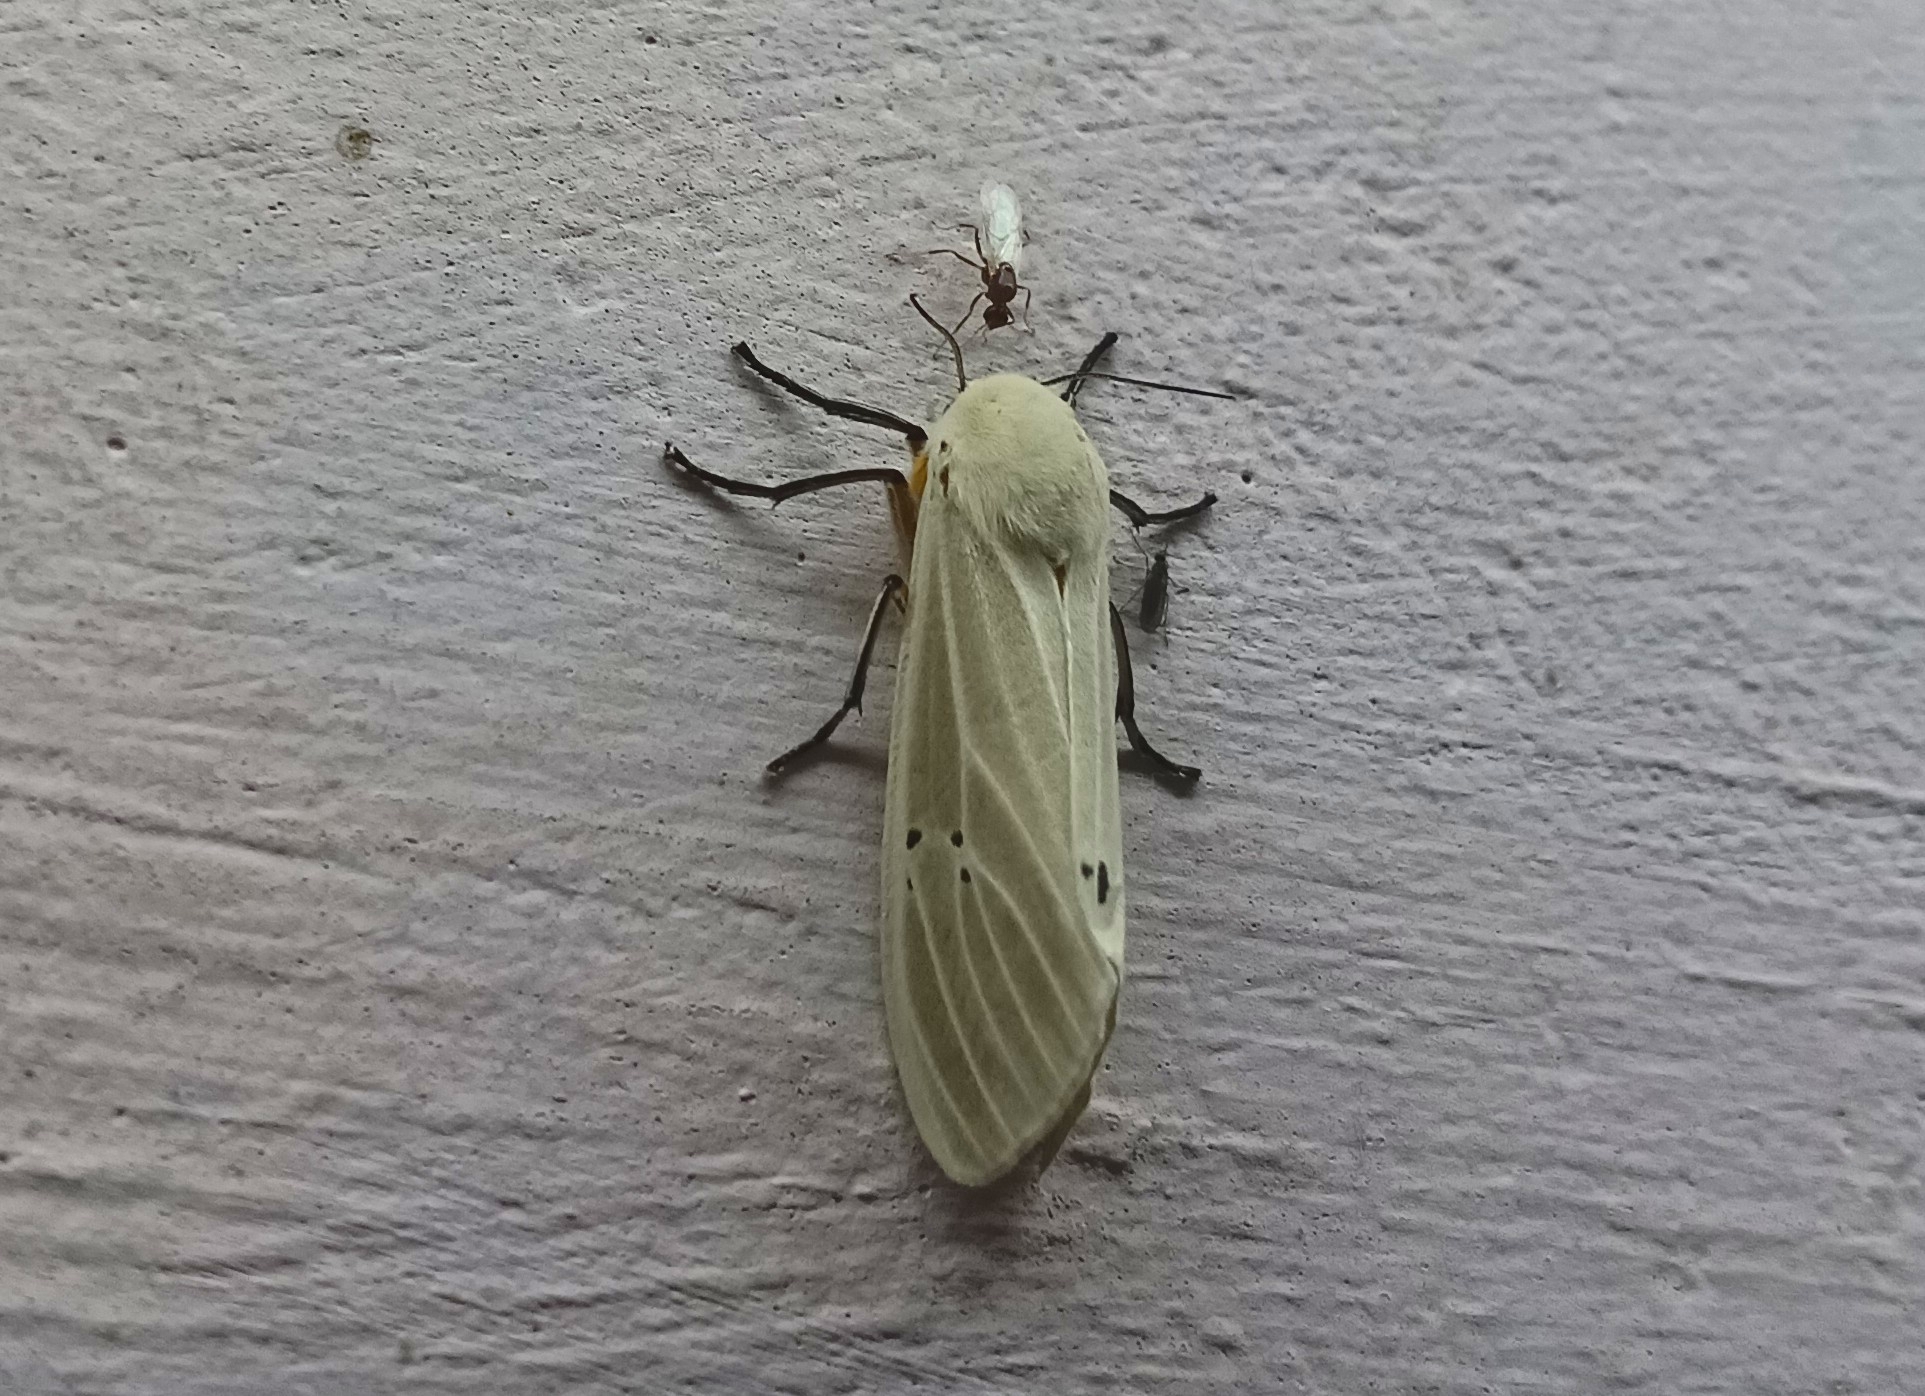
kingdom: Animalia
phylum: Arthropoda
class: Insecta
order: Lepidoptera
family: Erebidae
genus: Creatonotos
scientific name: Creatonotos transiens
